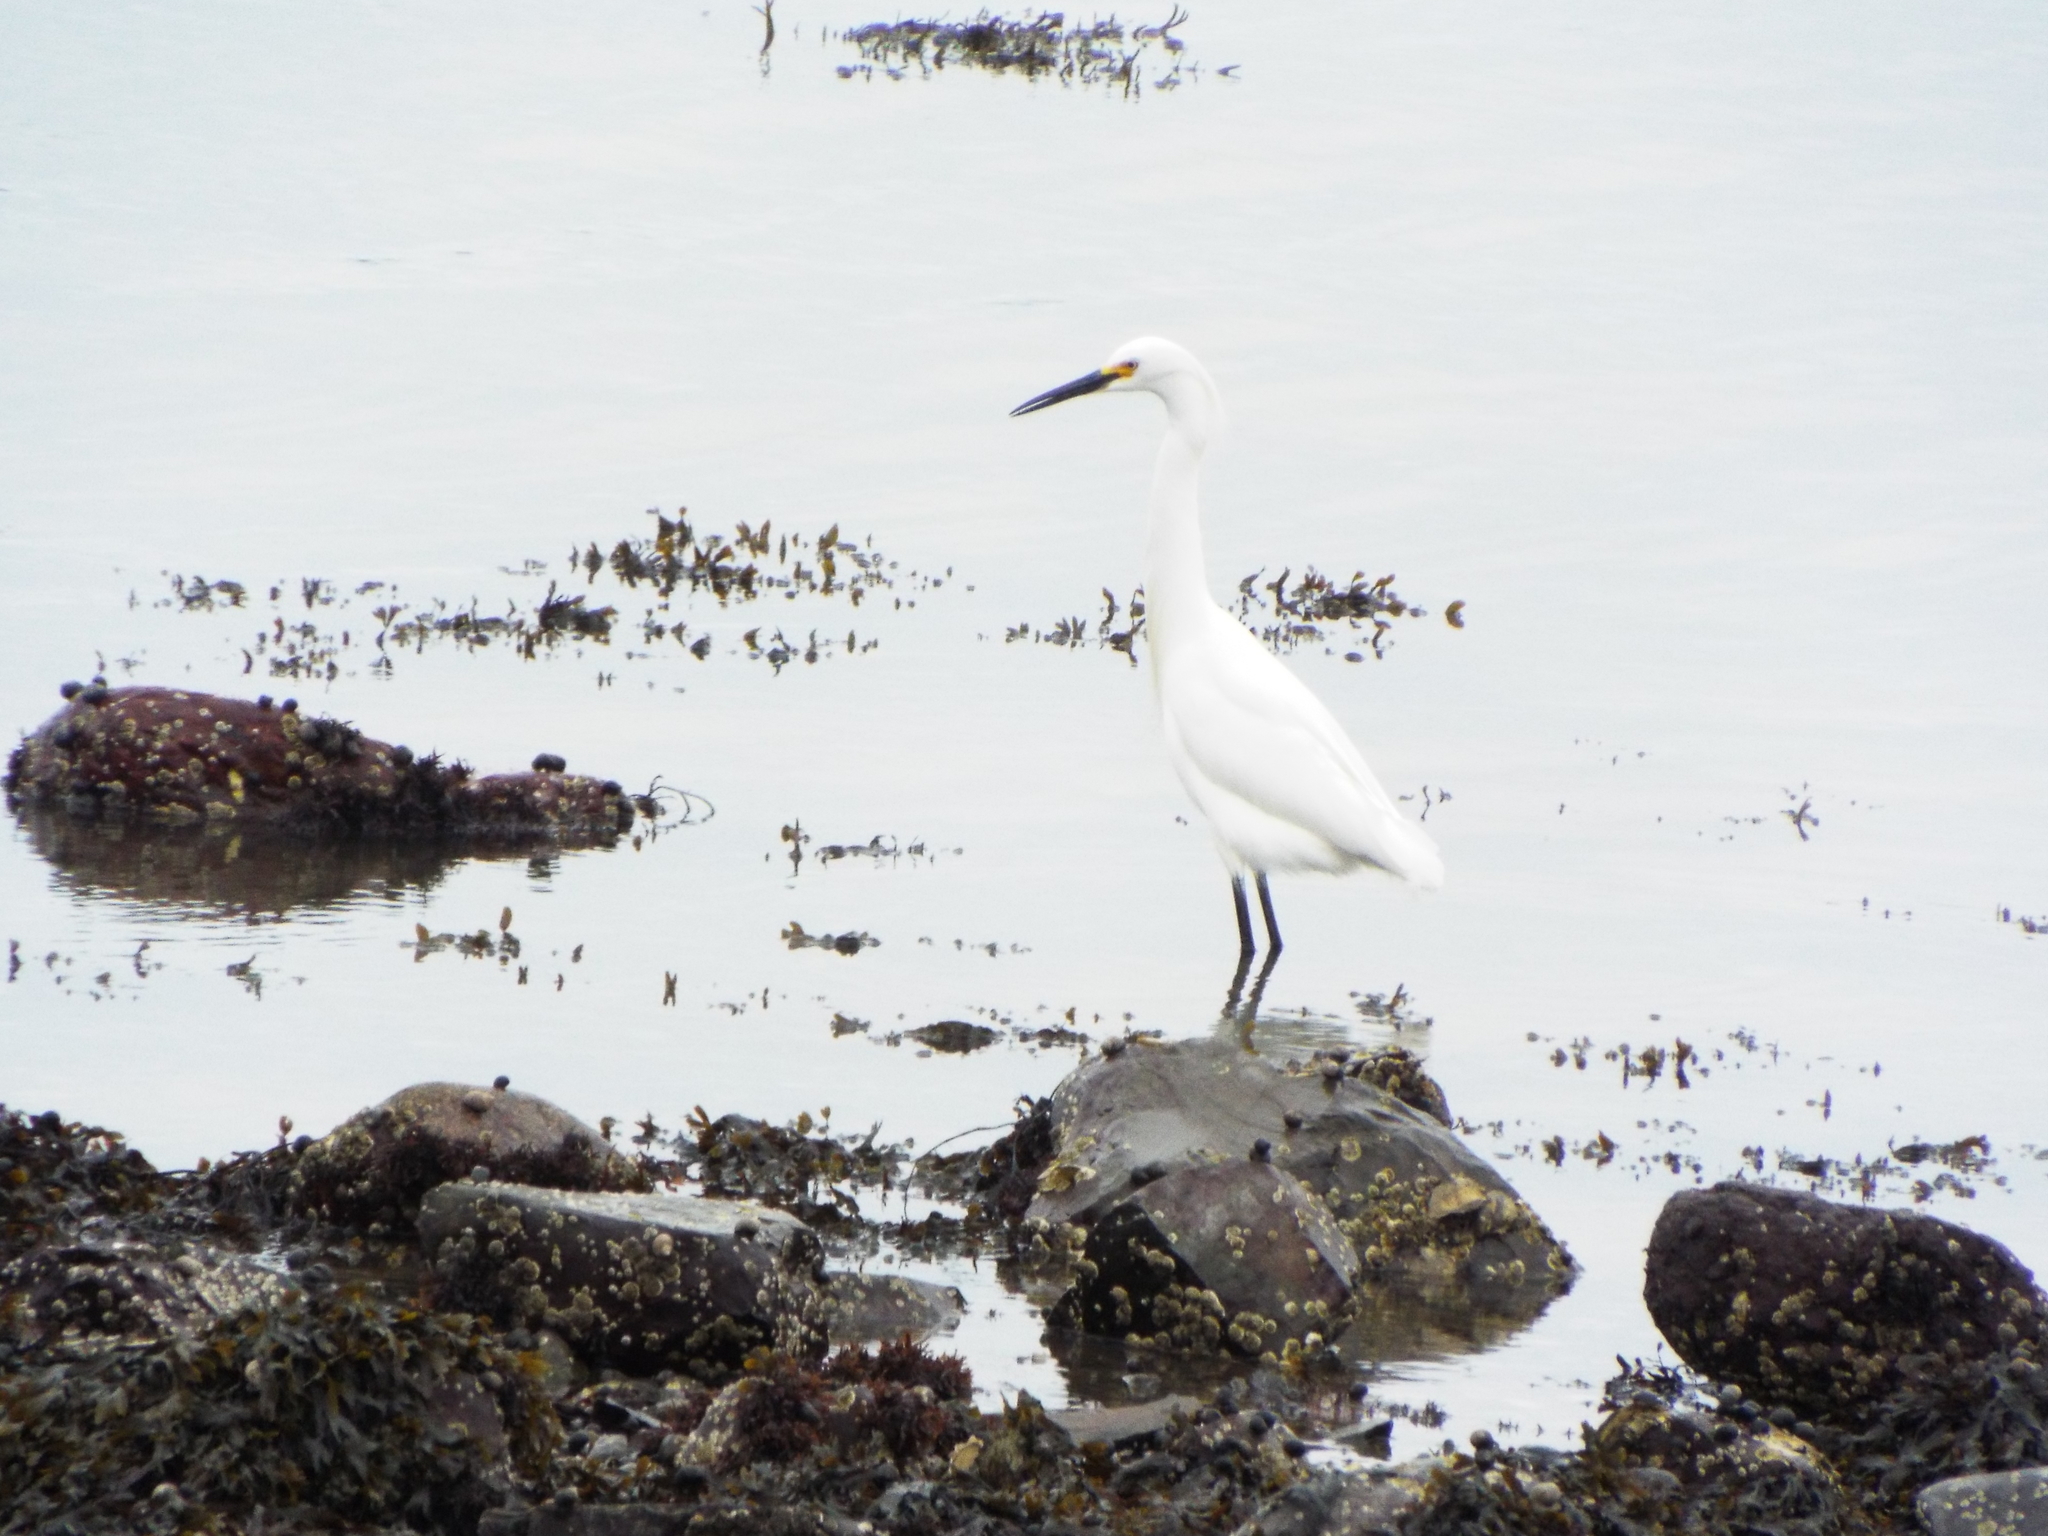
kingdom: Animalia
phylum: Chordata
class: Aves
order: Pelecaniformes
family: Ardeidae
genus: Egretta
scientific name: Egretta thula
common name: Snowy egret
